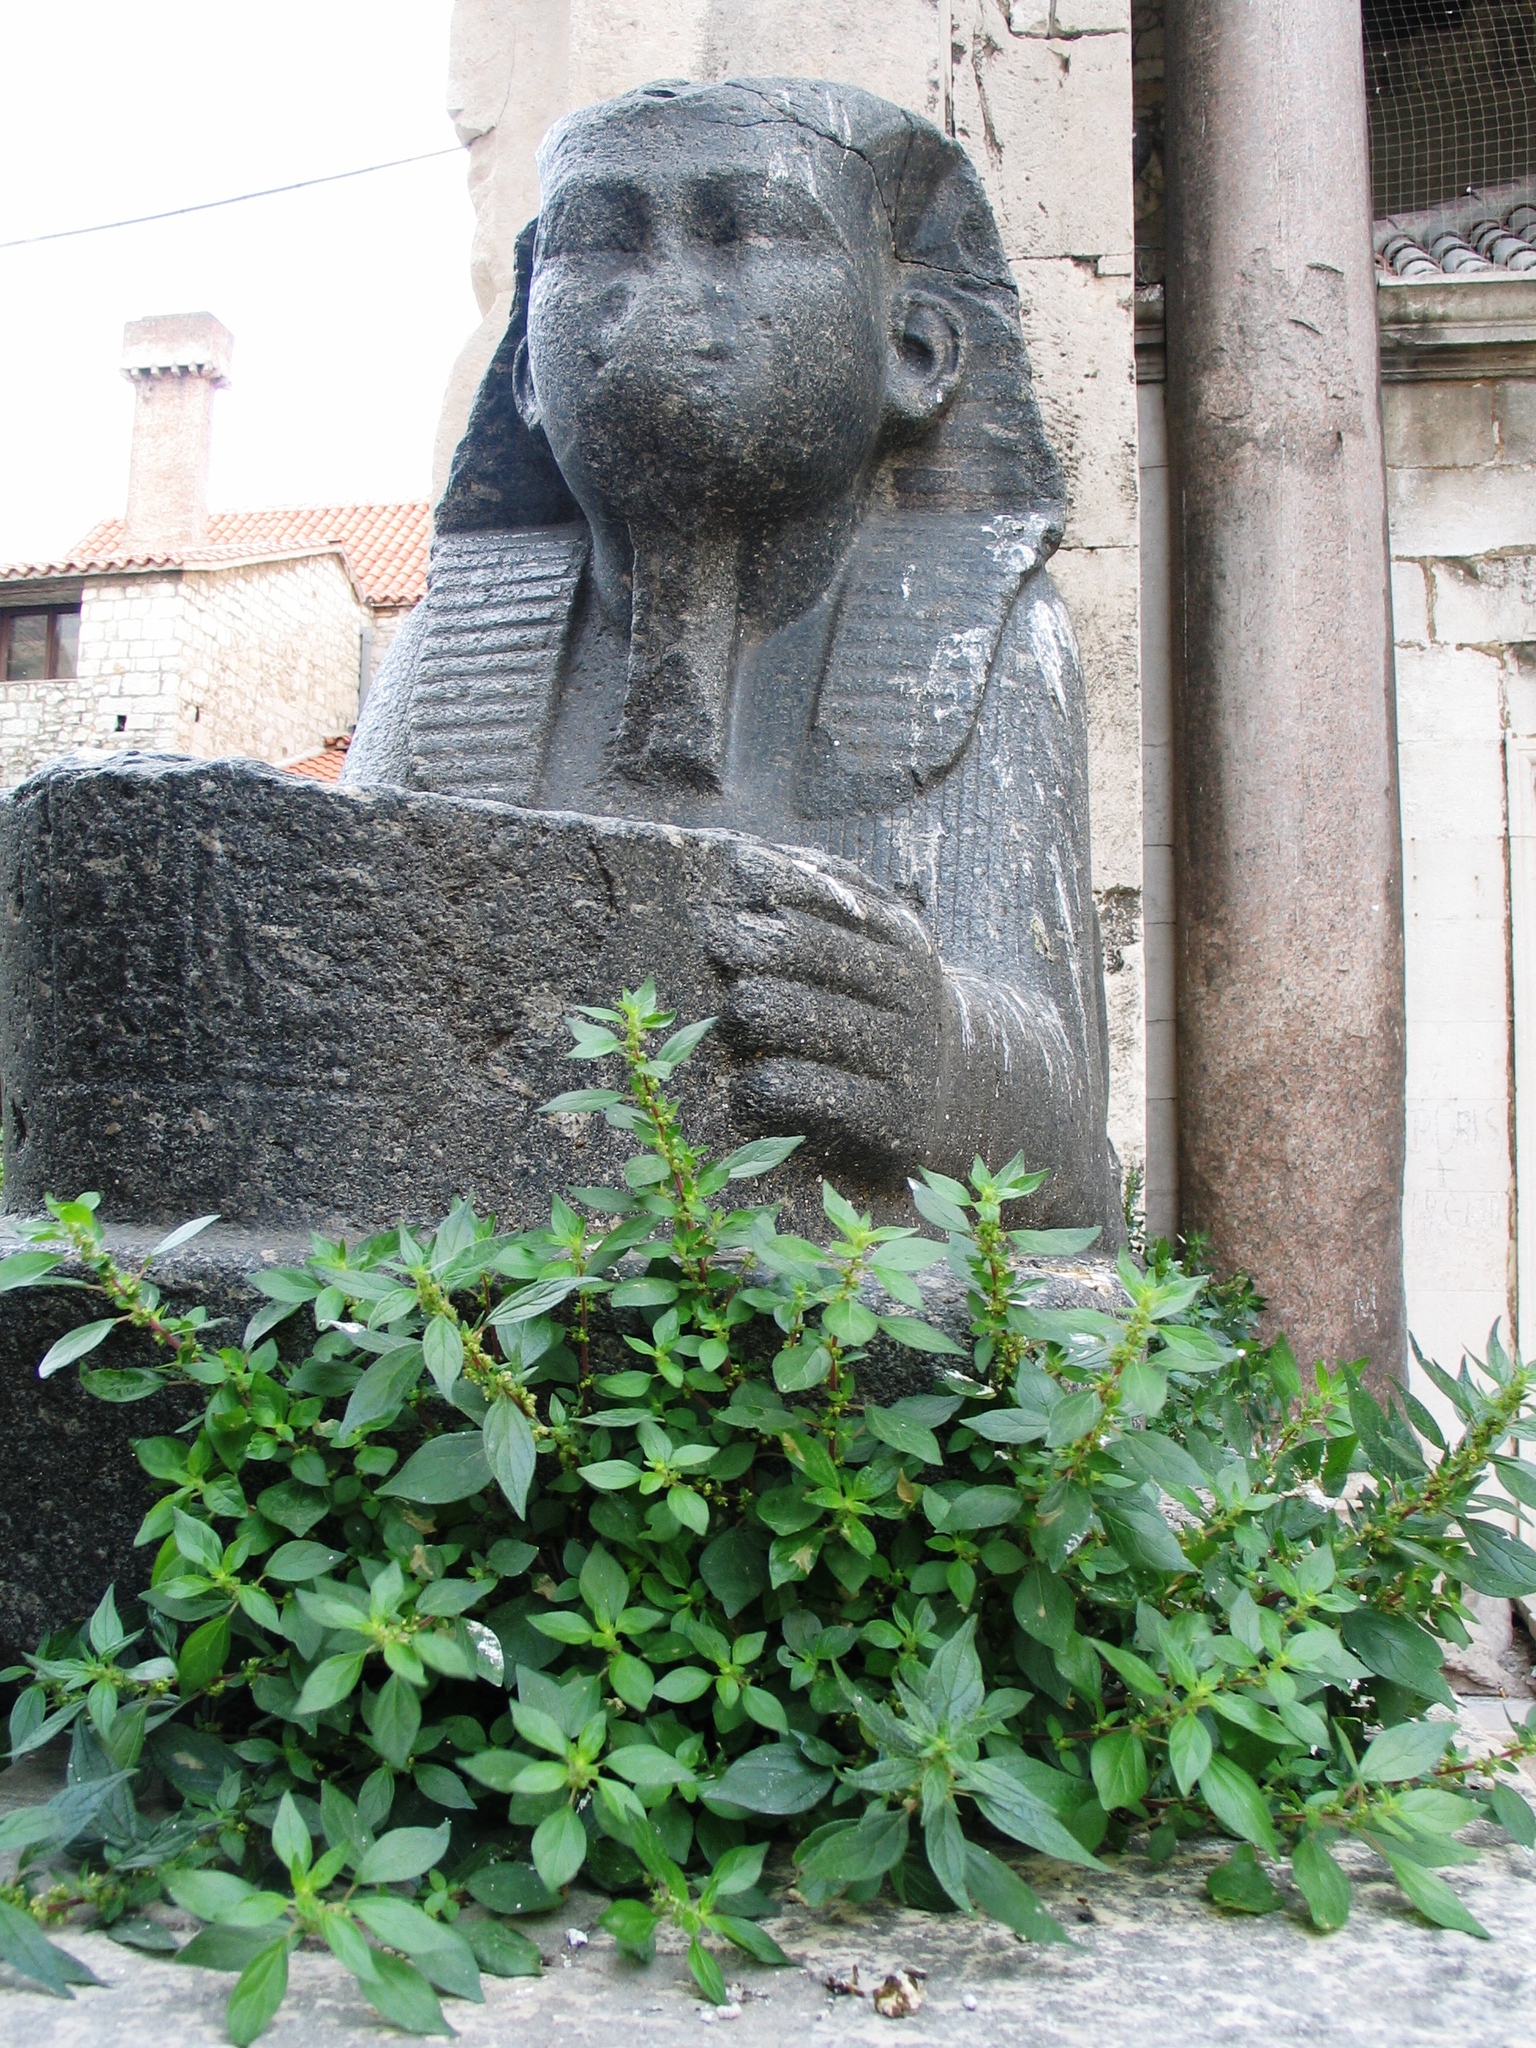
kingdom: Plantae
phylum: Tracheophyta
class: Magnoliopsida
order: Rosales
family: Urticaceae
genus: Parietaria
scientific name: Parietaria judaica
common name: Pellitory-of-the-wall
